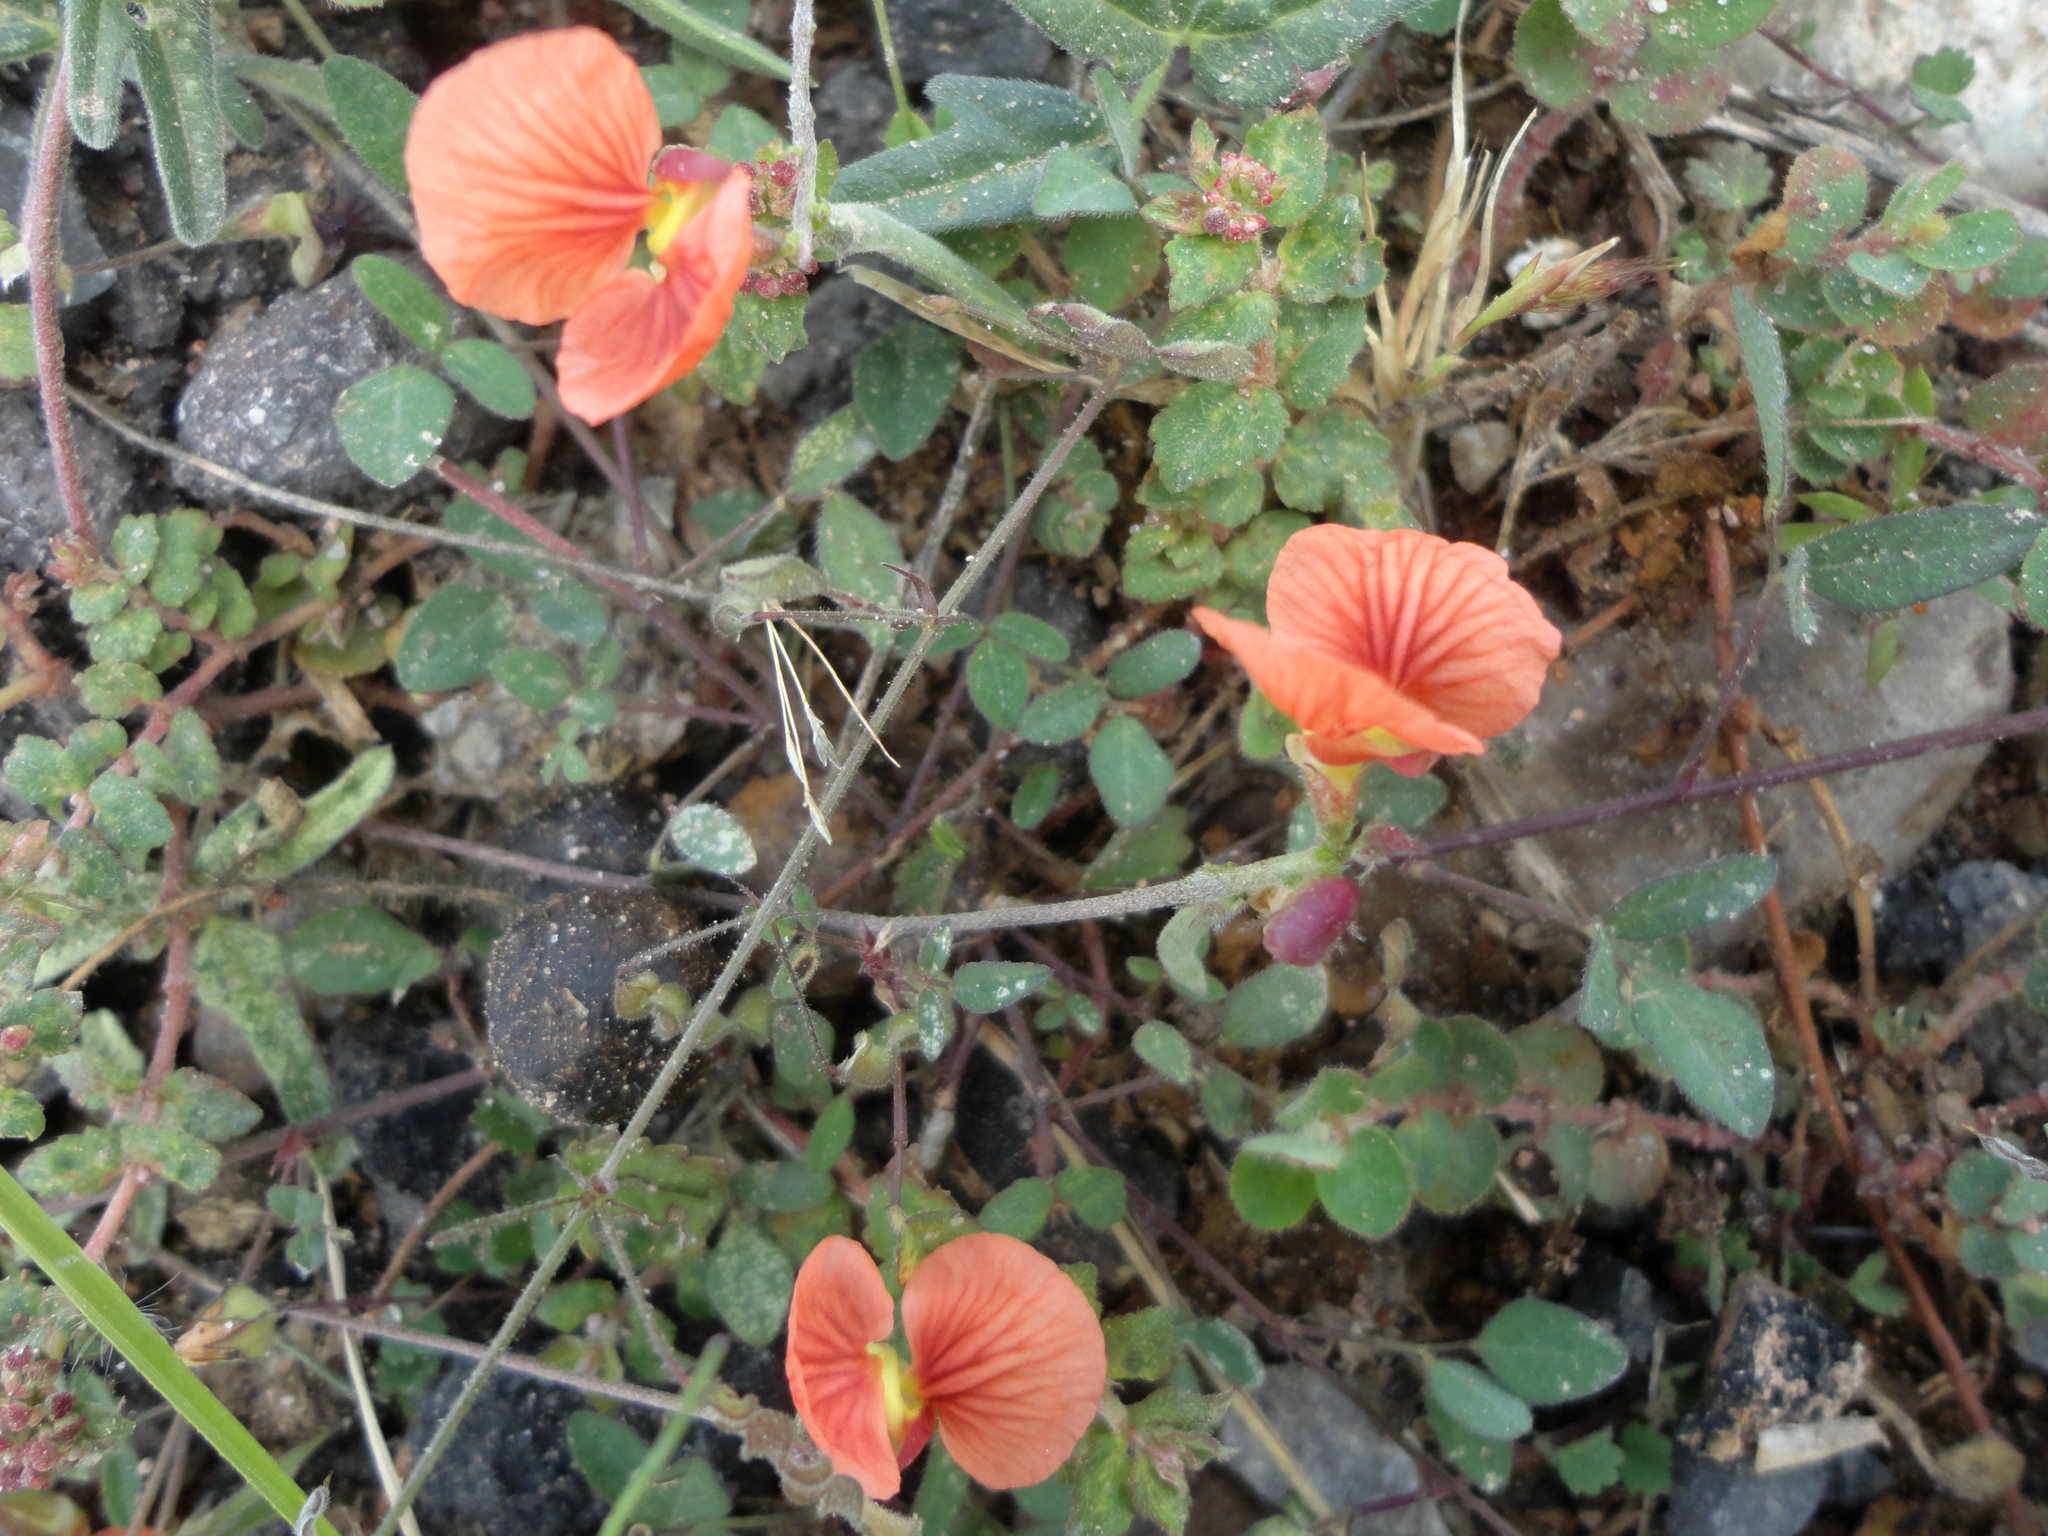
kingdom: Plantae
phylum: Tracheophyta
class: Magnoliopsida
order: Fabales
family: Fabaceae
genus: Macroptilium
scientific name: Macroptilium gibbosifolium
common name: Variableleaf bushbean
